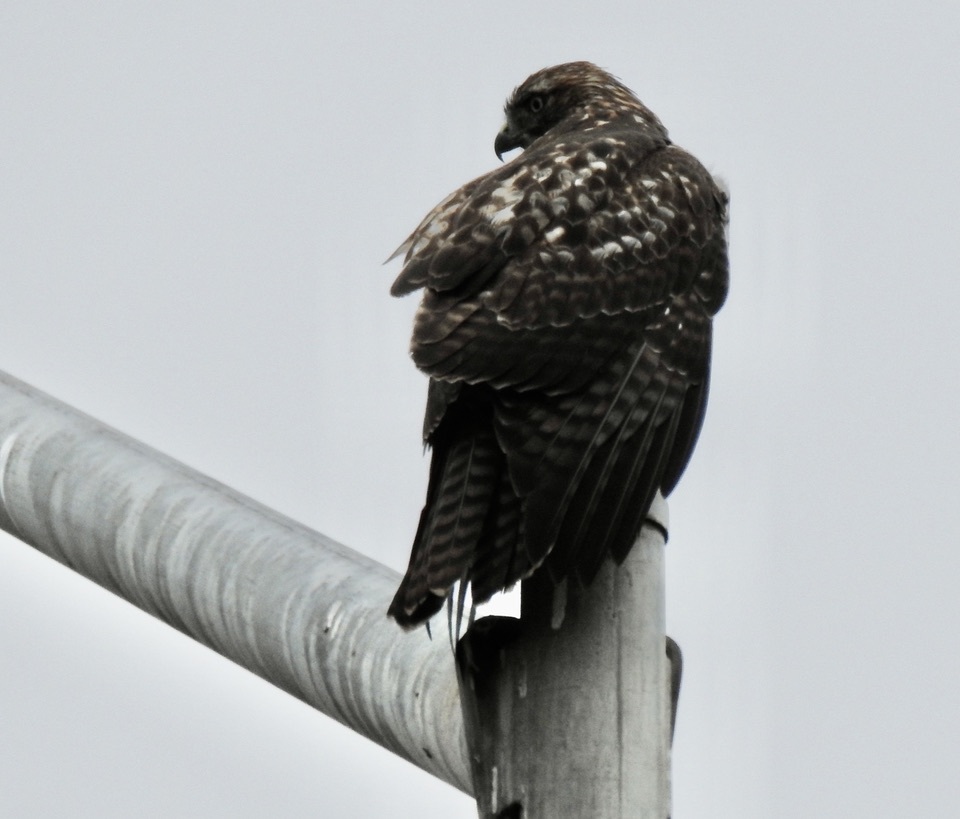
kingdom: Animalia
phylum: Chordata
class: Aves
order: Accipitriformes
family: Accipitridae
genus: Buteo
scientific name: Buteo jamaicensis
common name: Red-tailed hawk
